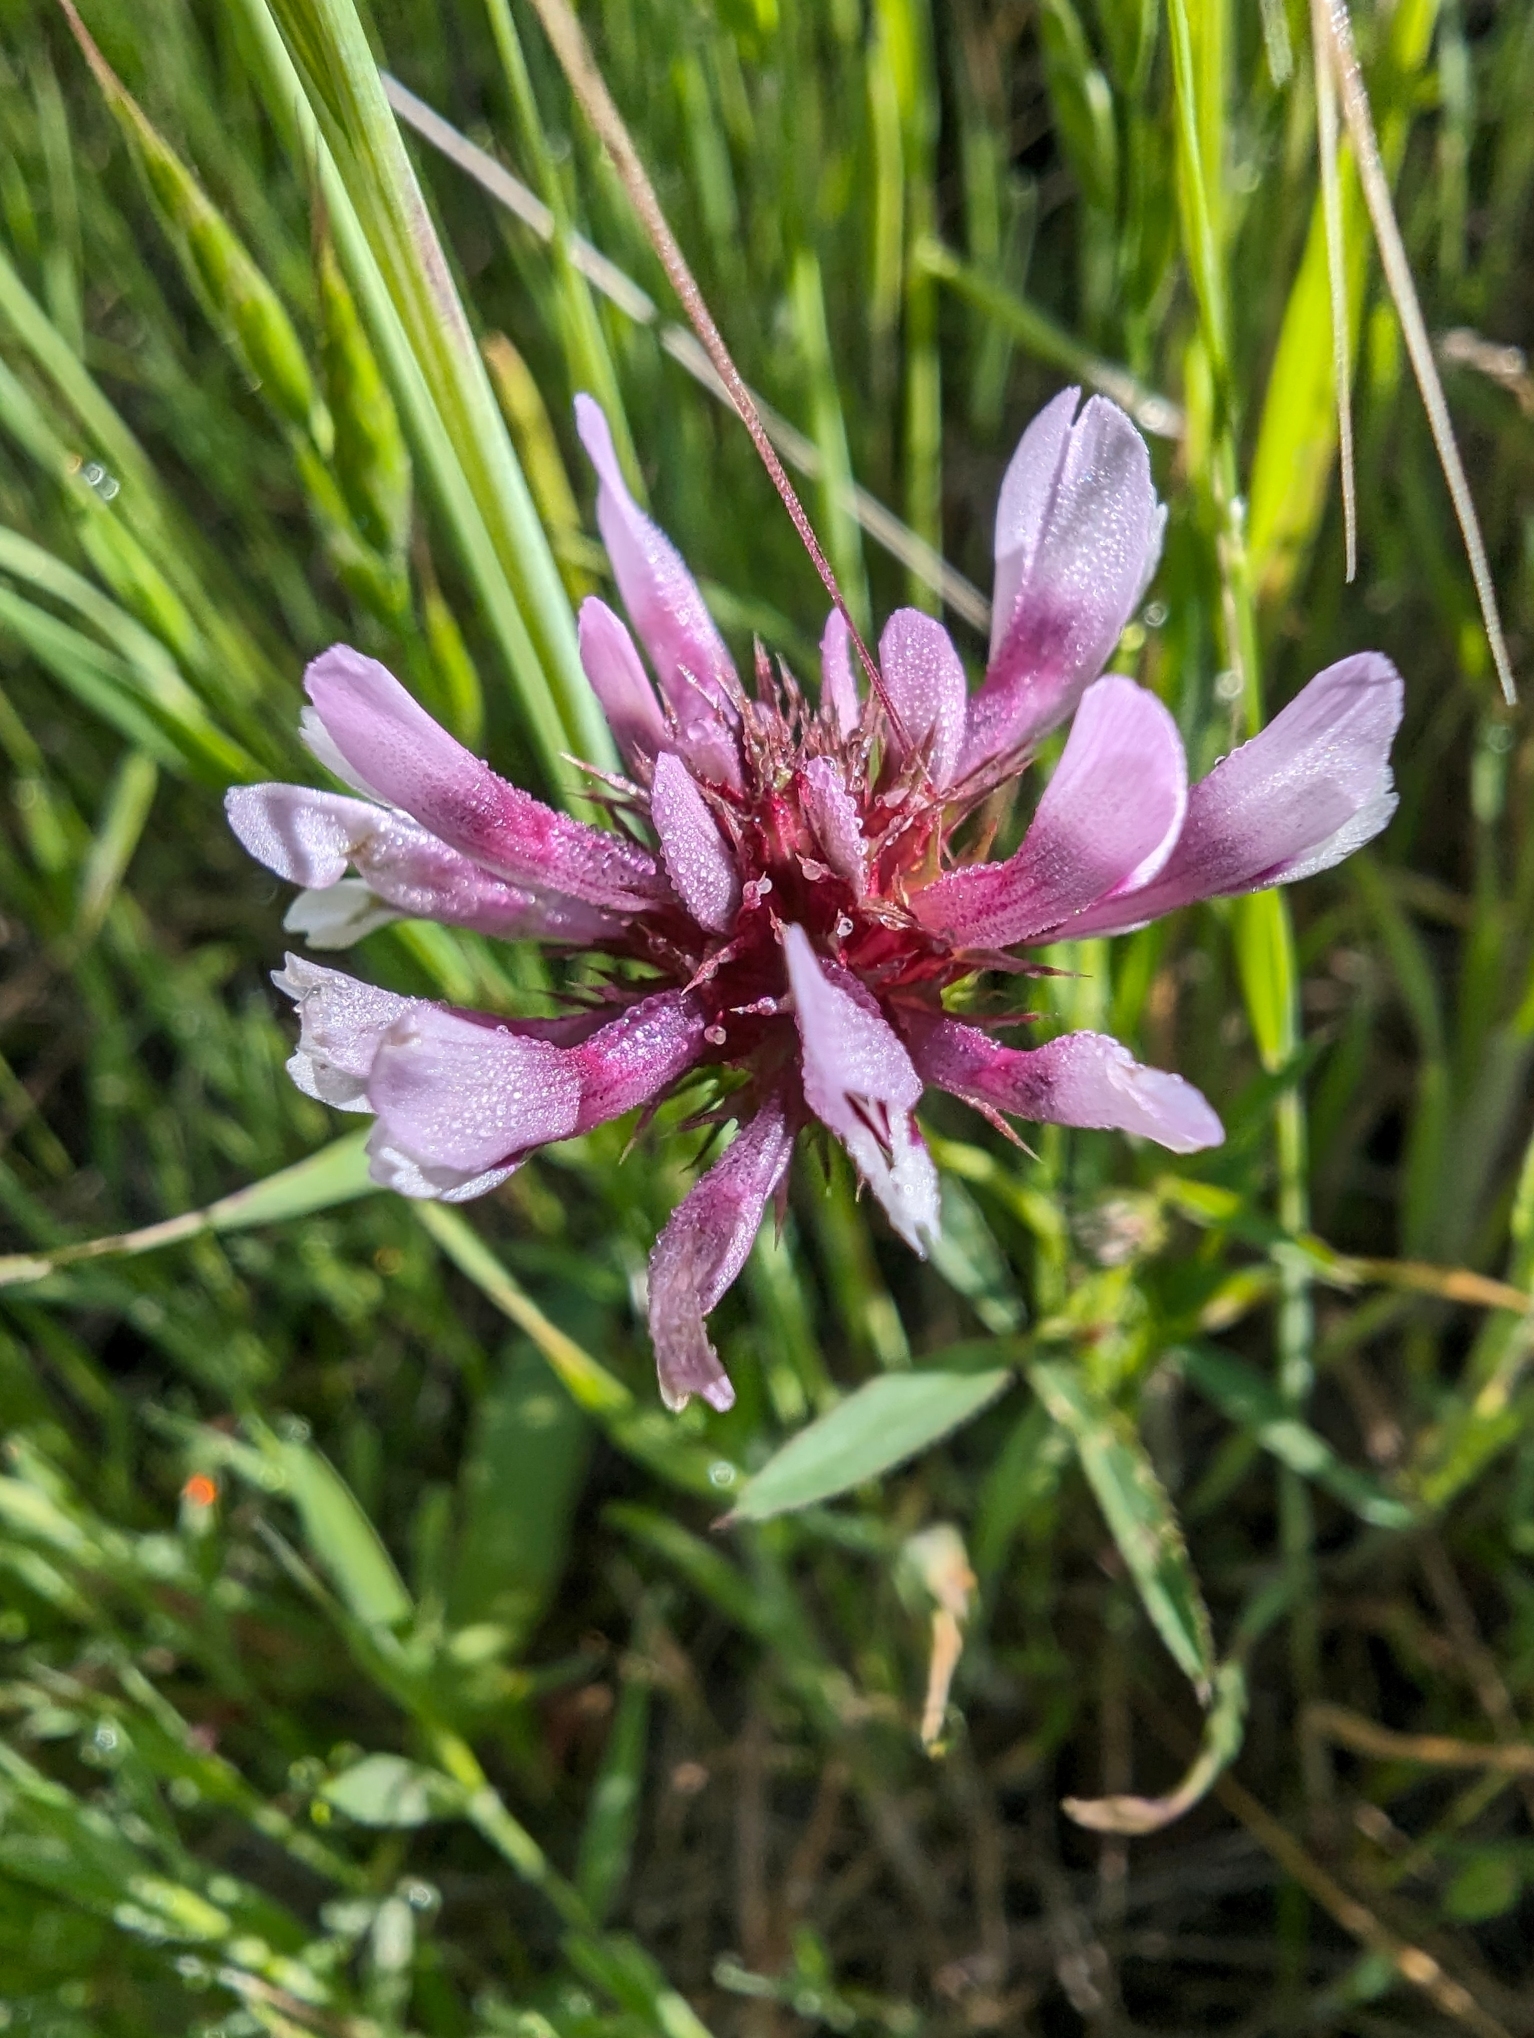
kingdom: Plantae
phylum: Tracheophyta
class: Magnoliopsida
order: Fabales
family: Fabaceae
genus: Trifolium
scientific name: Trifolium willdenovii
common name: Tomcat clover
